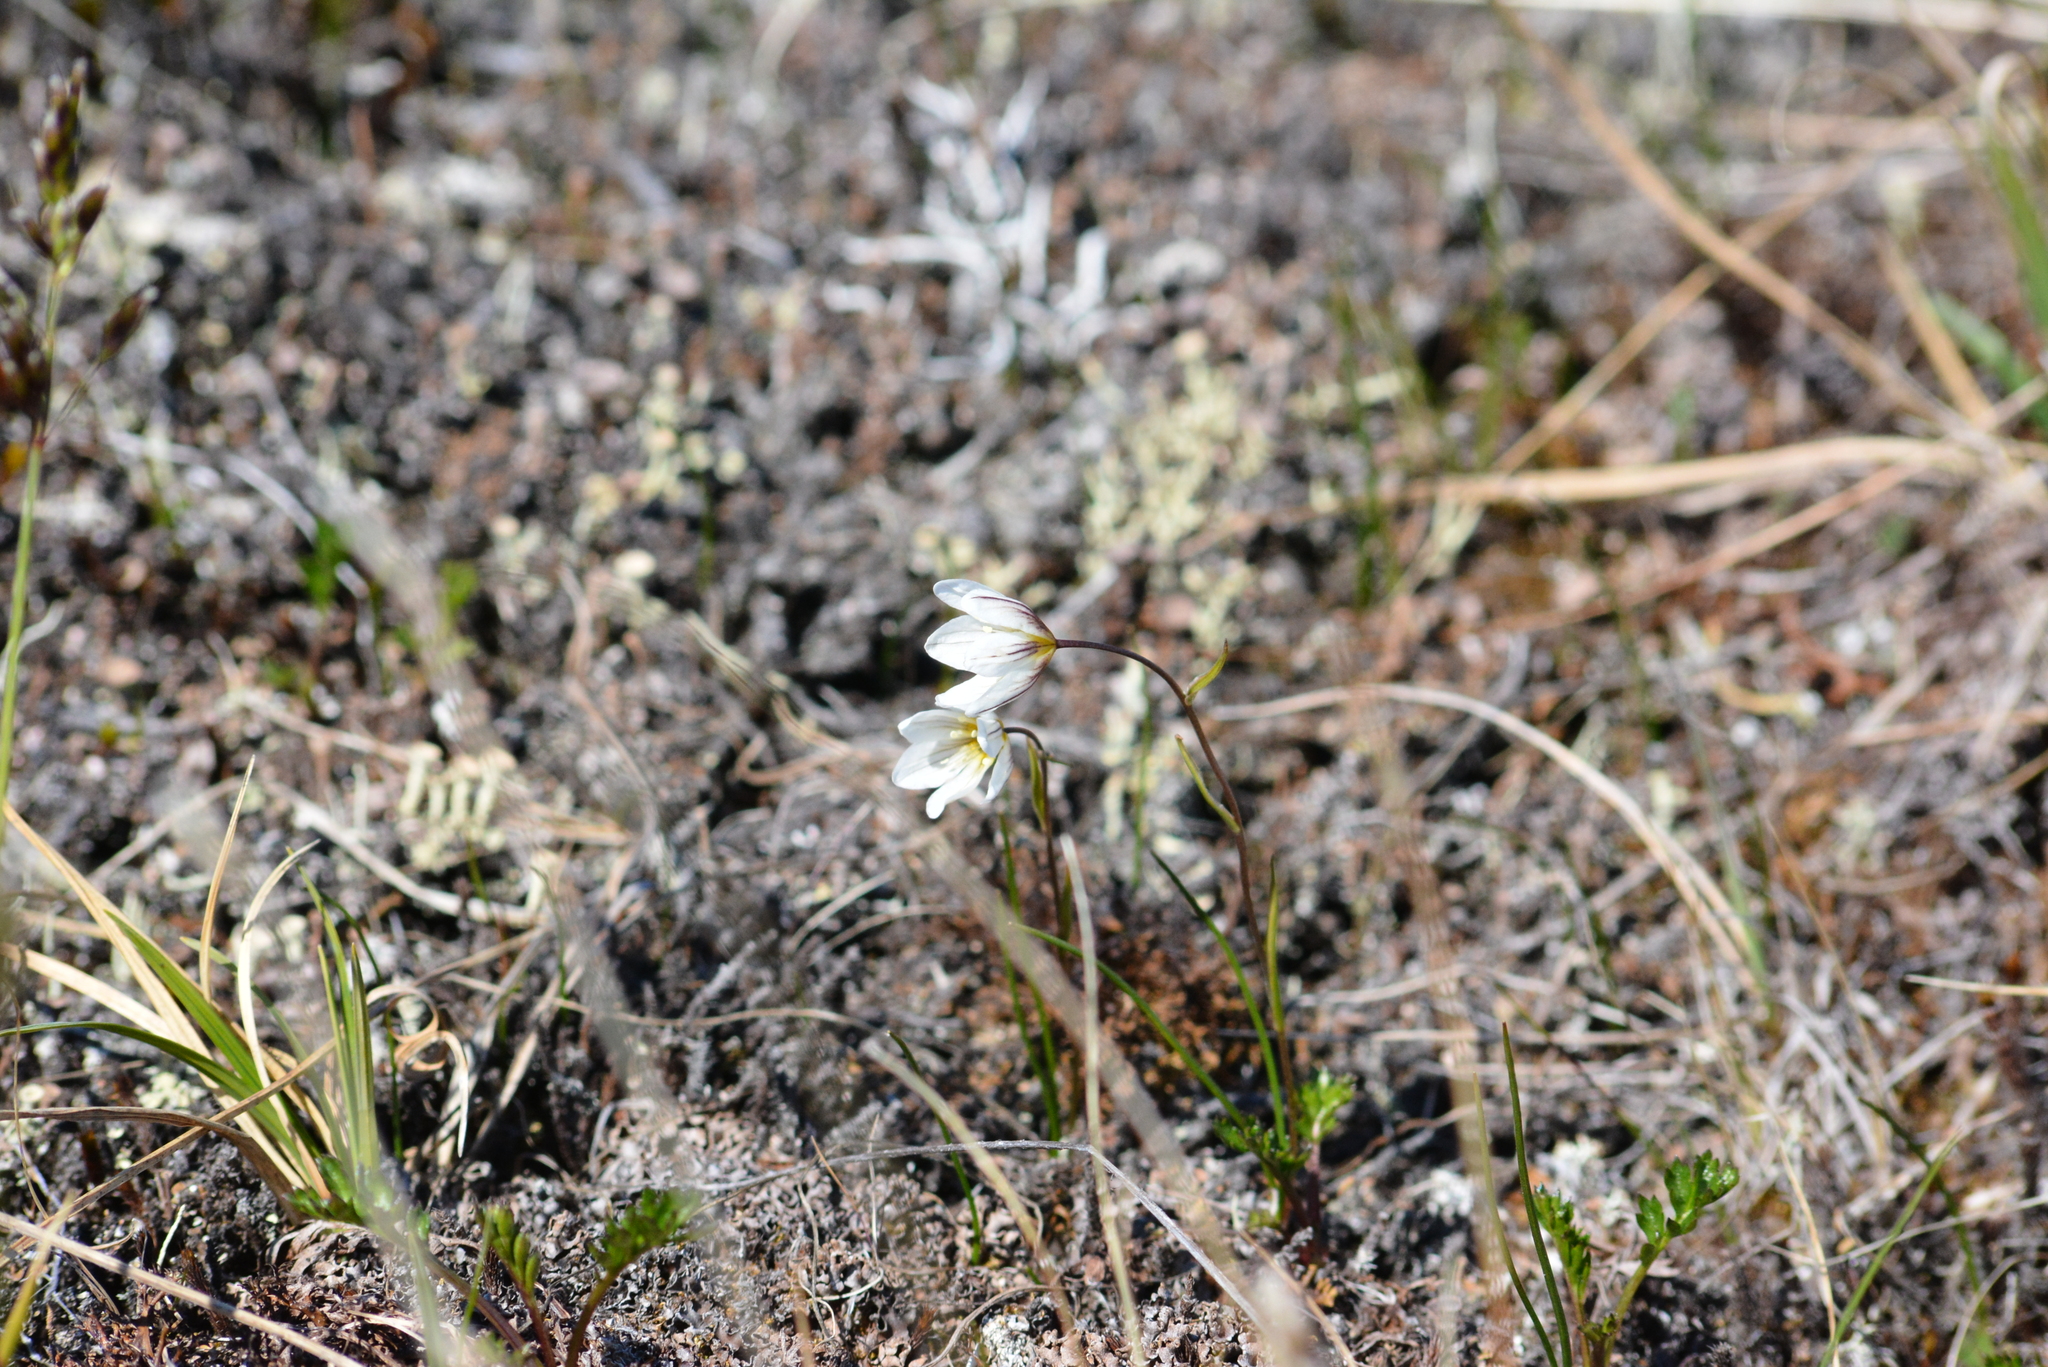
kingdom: Plantae
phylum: Tracheophyta
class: Liliopsida
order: Liliales
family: Liliaceae
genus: Gagea
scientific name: Gagea serotina
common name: Snowdon lily
